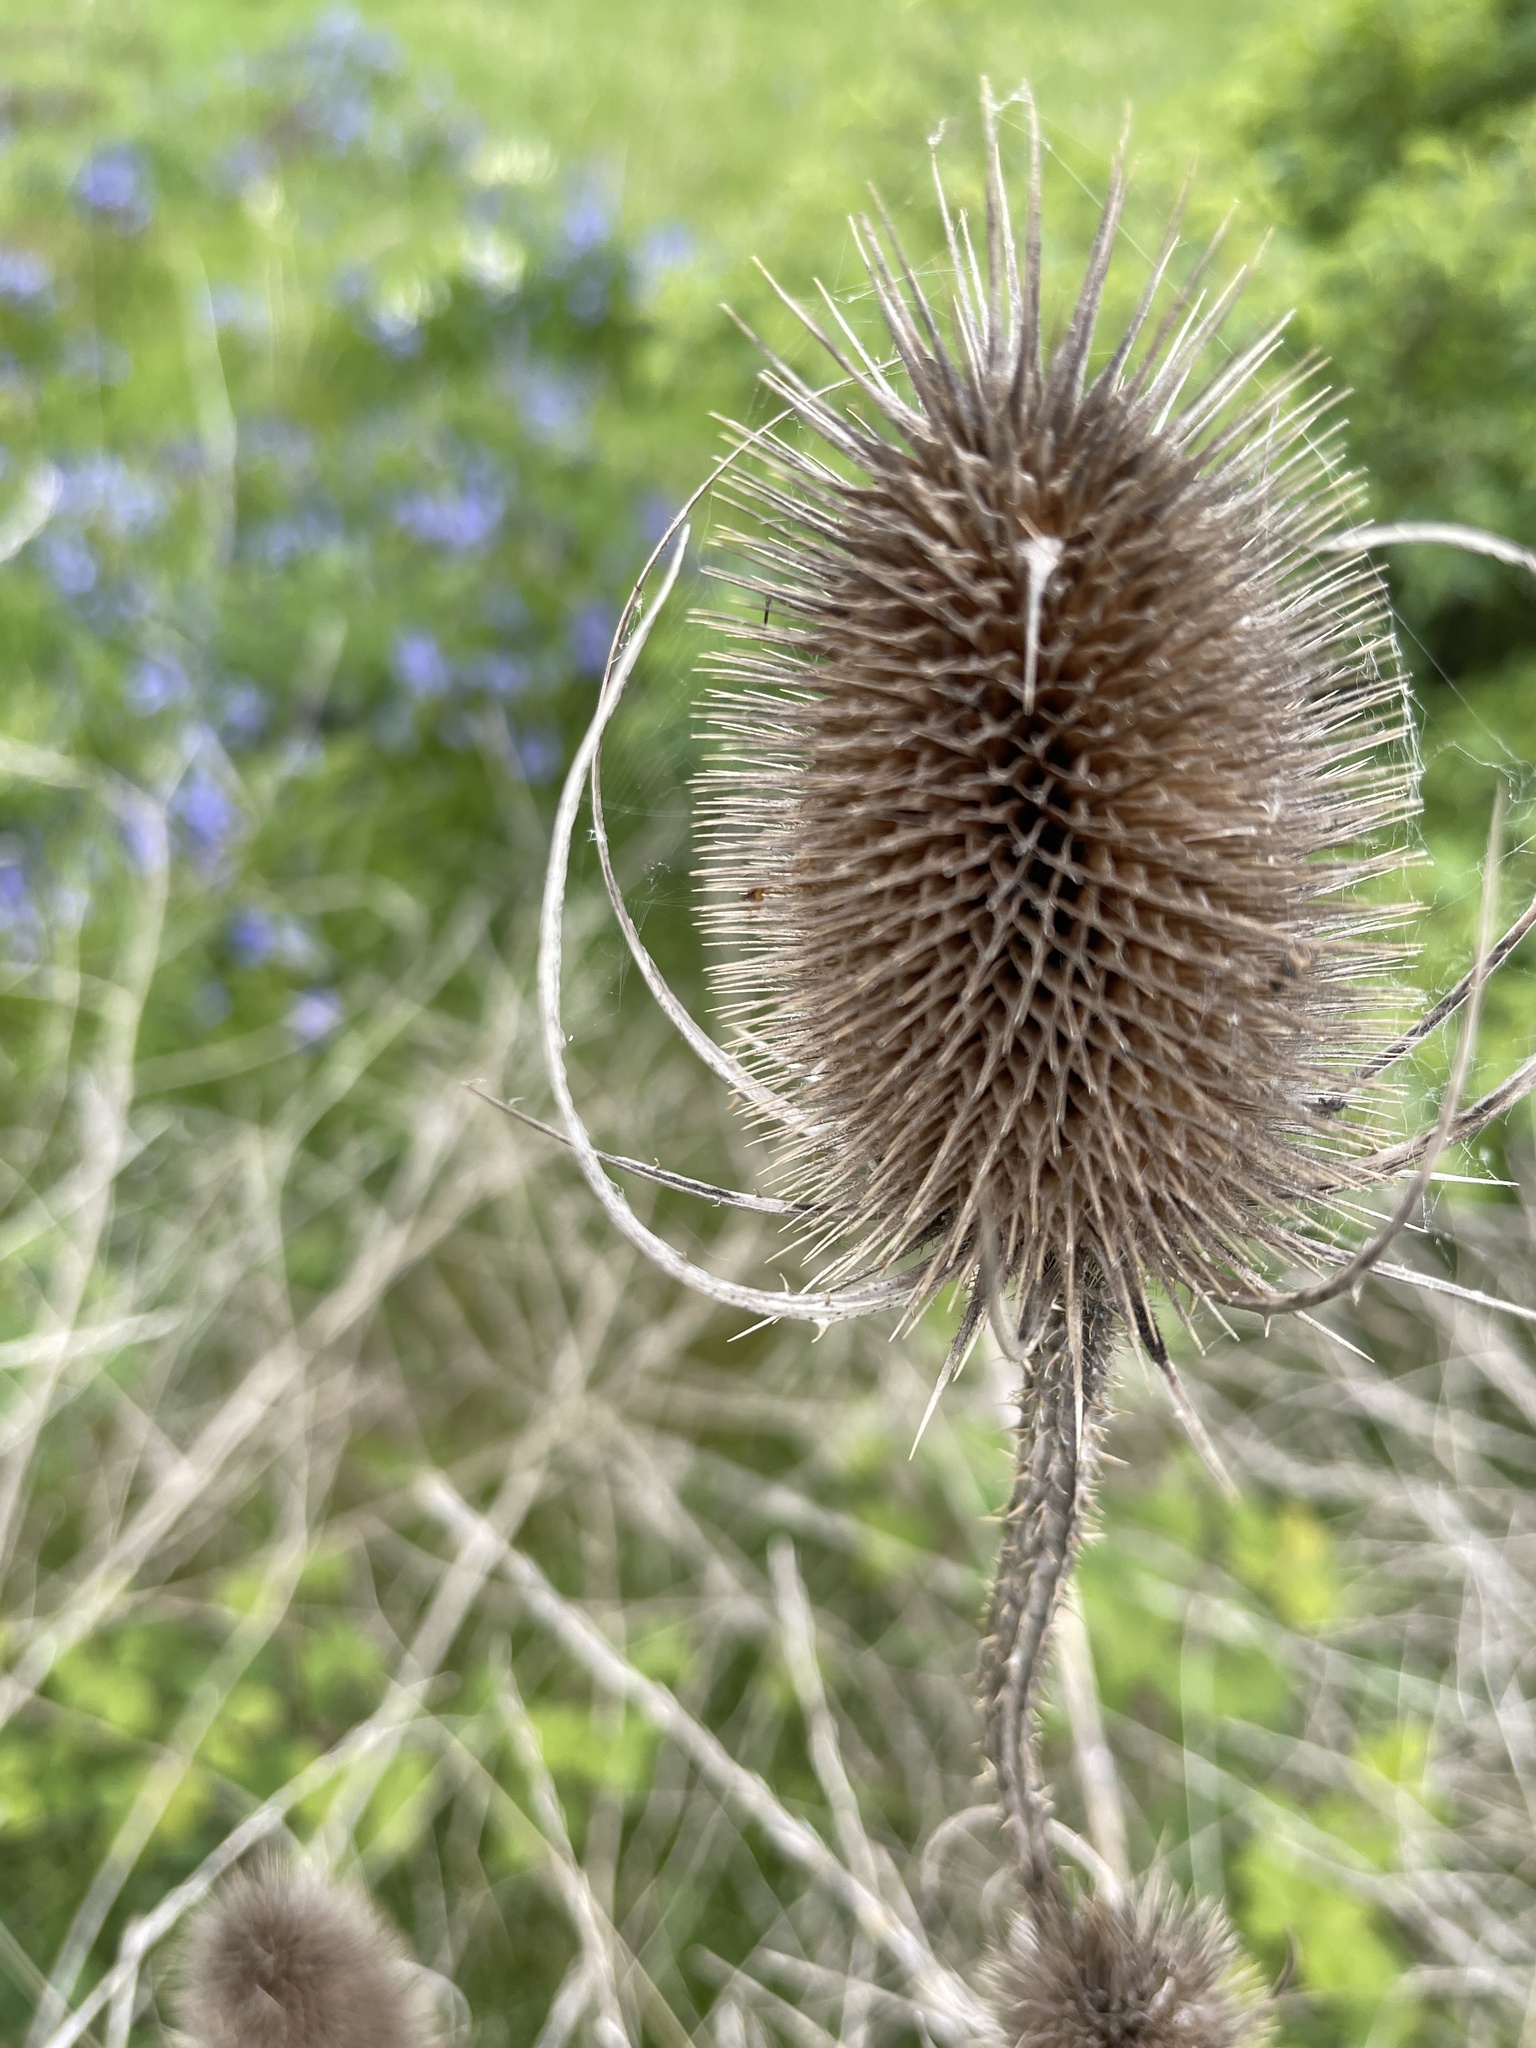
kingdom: Plantae
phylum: Tracheophyta
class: Magnoliopsida
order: Dipsacales
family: Caprifoliaceae
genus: Dipsacus
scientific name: Dipsacus fullonum
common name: Teasel
